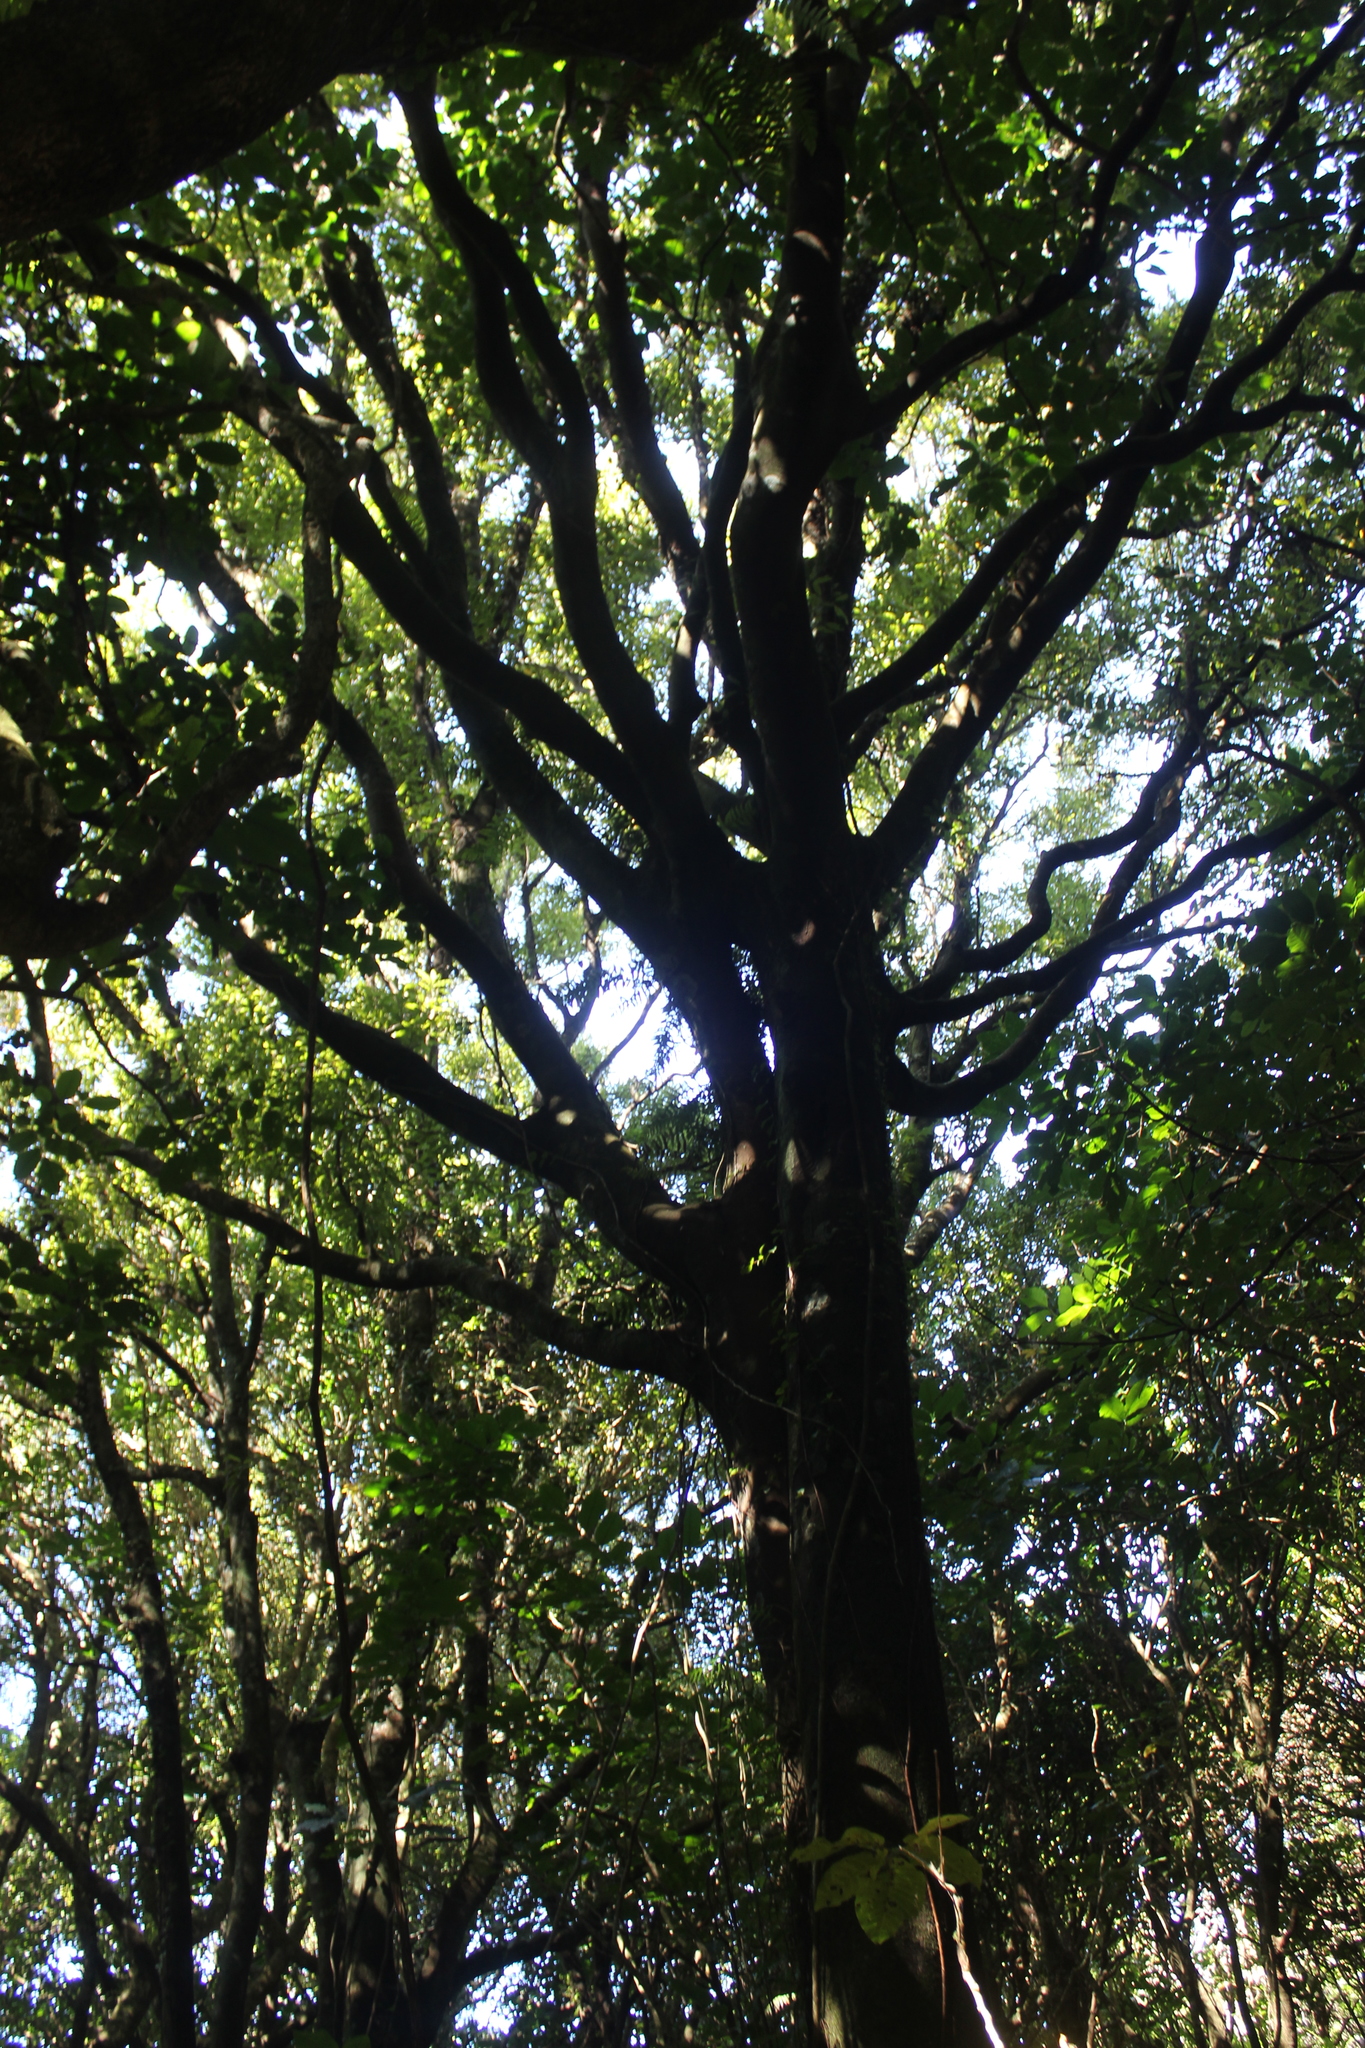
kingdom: Plantae
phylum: Tracheophyta
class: Magnoliopsida
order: Laurales
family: Lauraceae
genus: Beilschmiedia
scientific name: Beilschmiedia tawa
